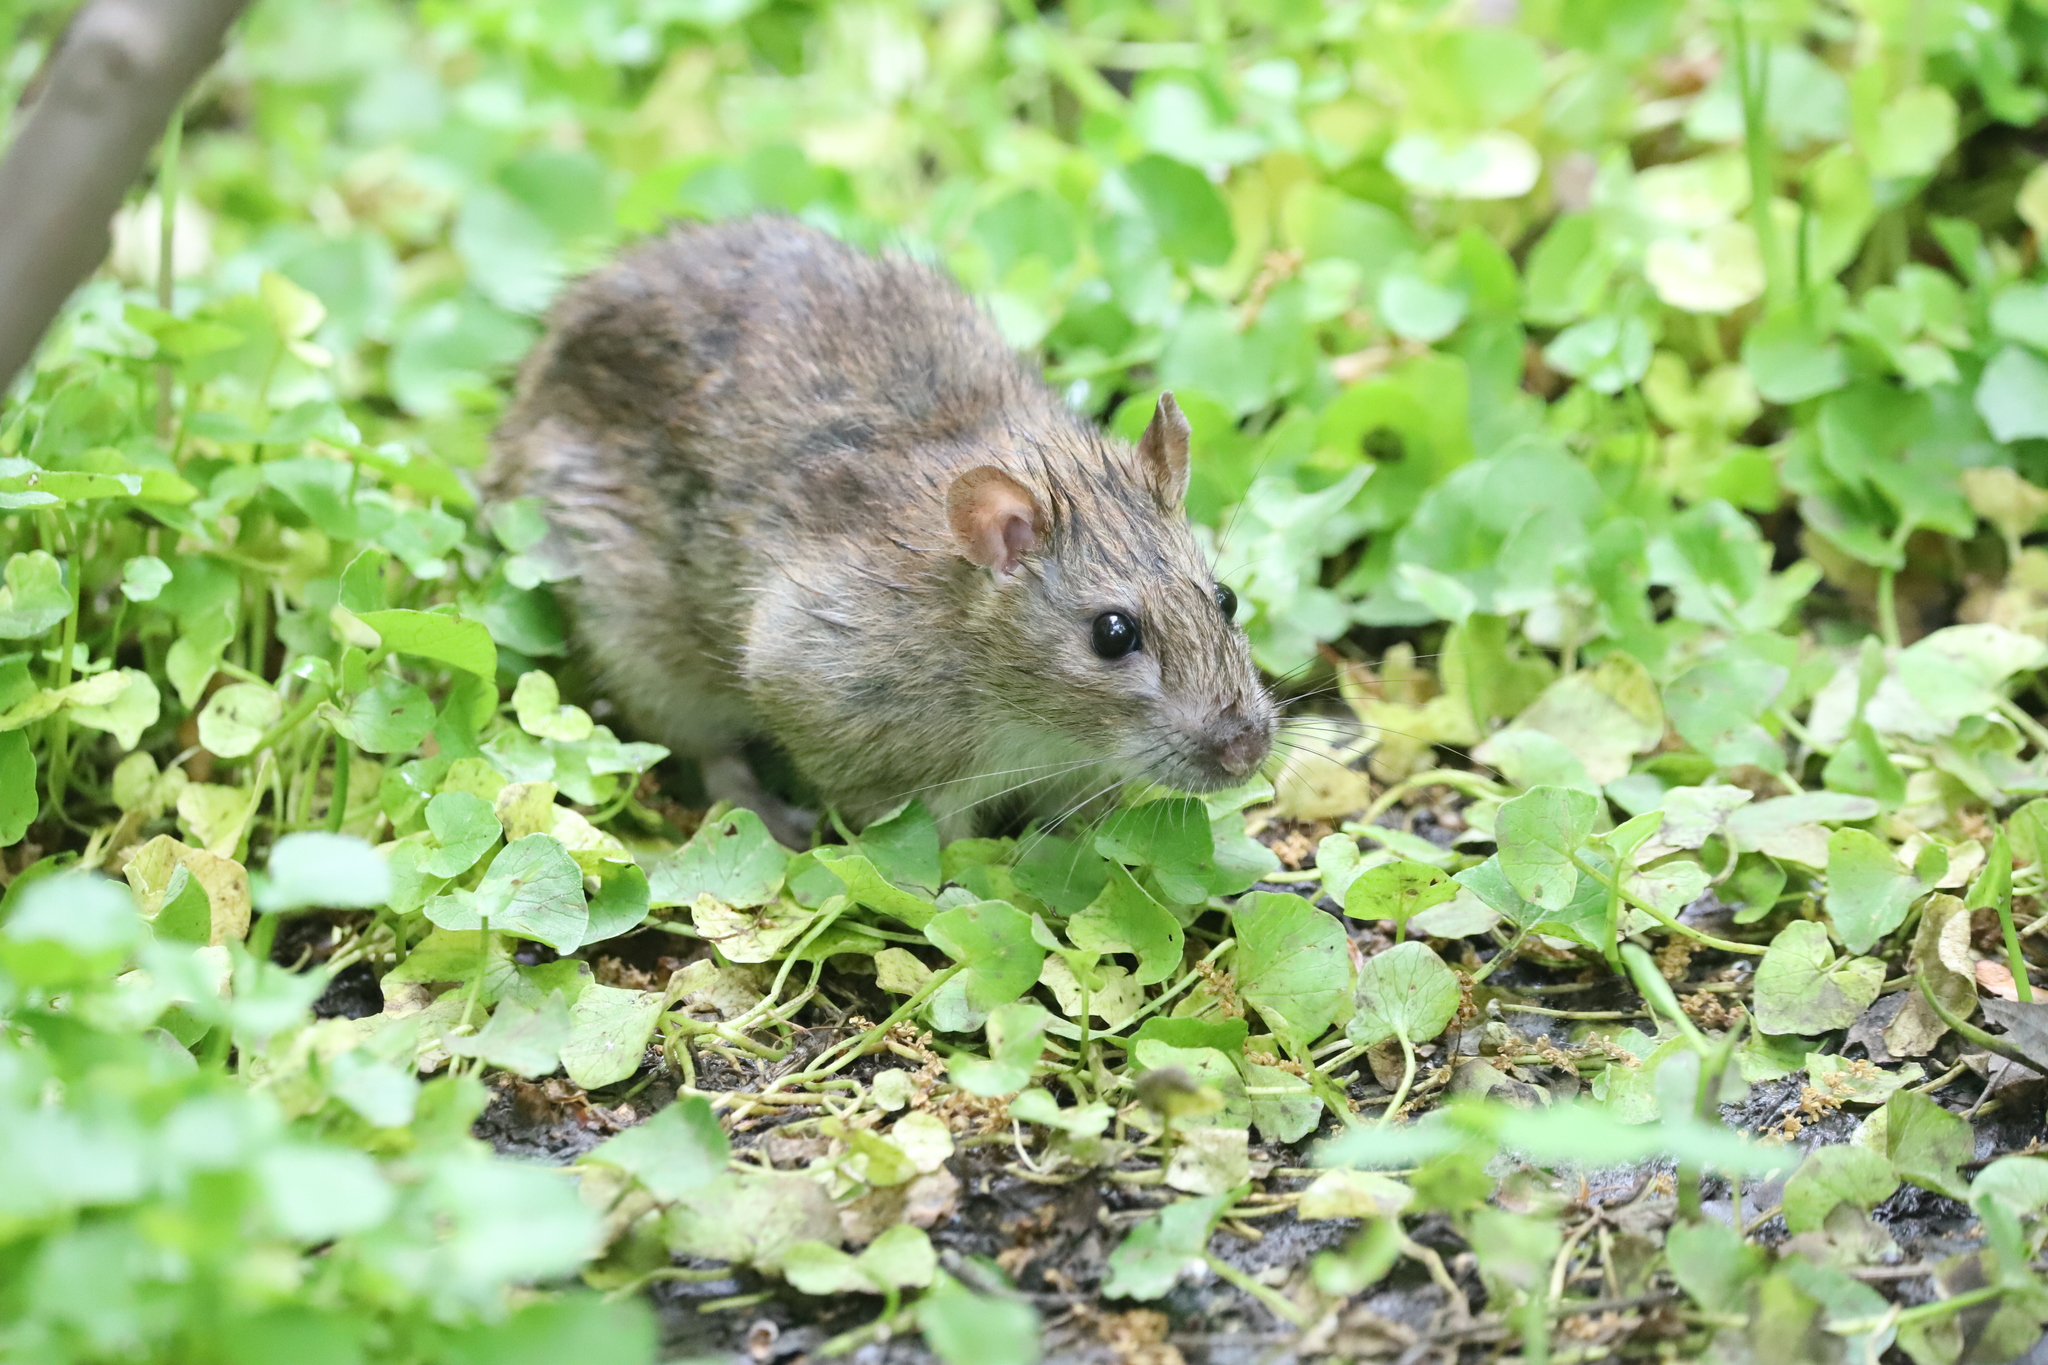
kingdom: Animalia
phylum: Chordata
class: Mammalia
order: Rodentia
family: Muridae
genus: Rattus
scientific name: Rattus norvegicus
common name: Brown rat
